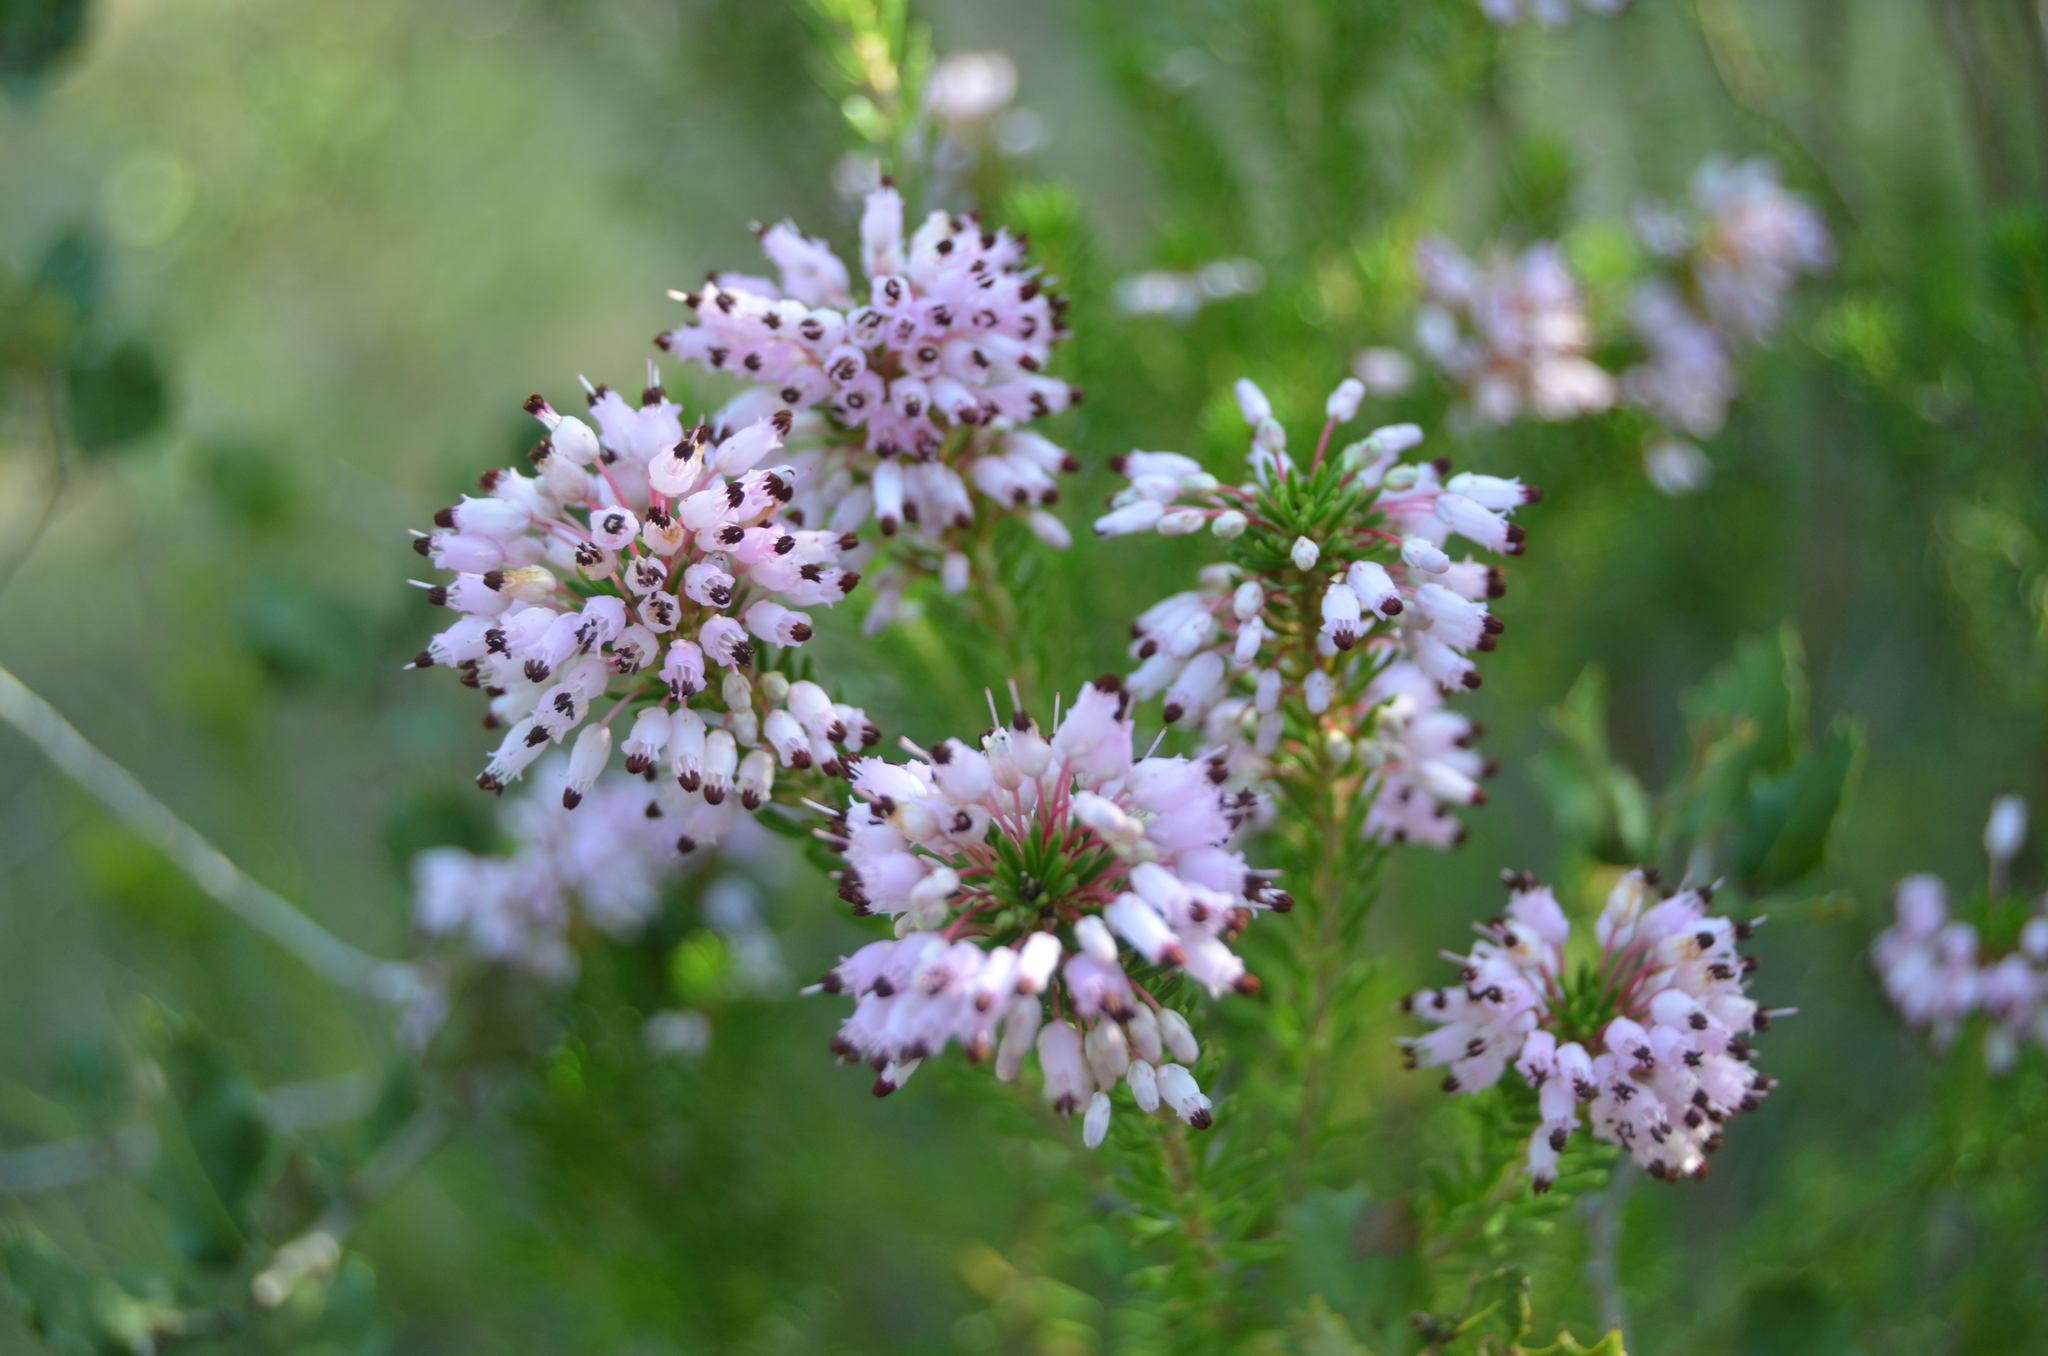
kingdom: Plantae
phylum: Tracheophyta
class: Magnoliopsida
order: Ericales
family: Ericaceae
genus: Erica
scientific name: Erica multiflora
